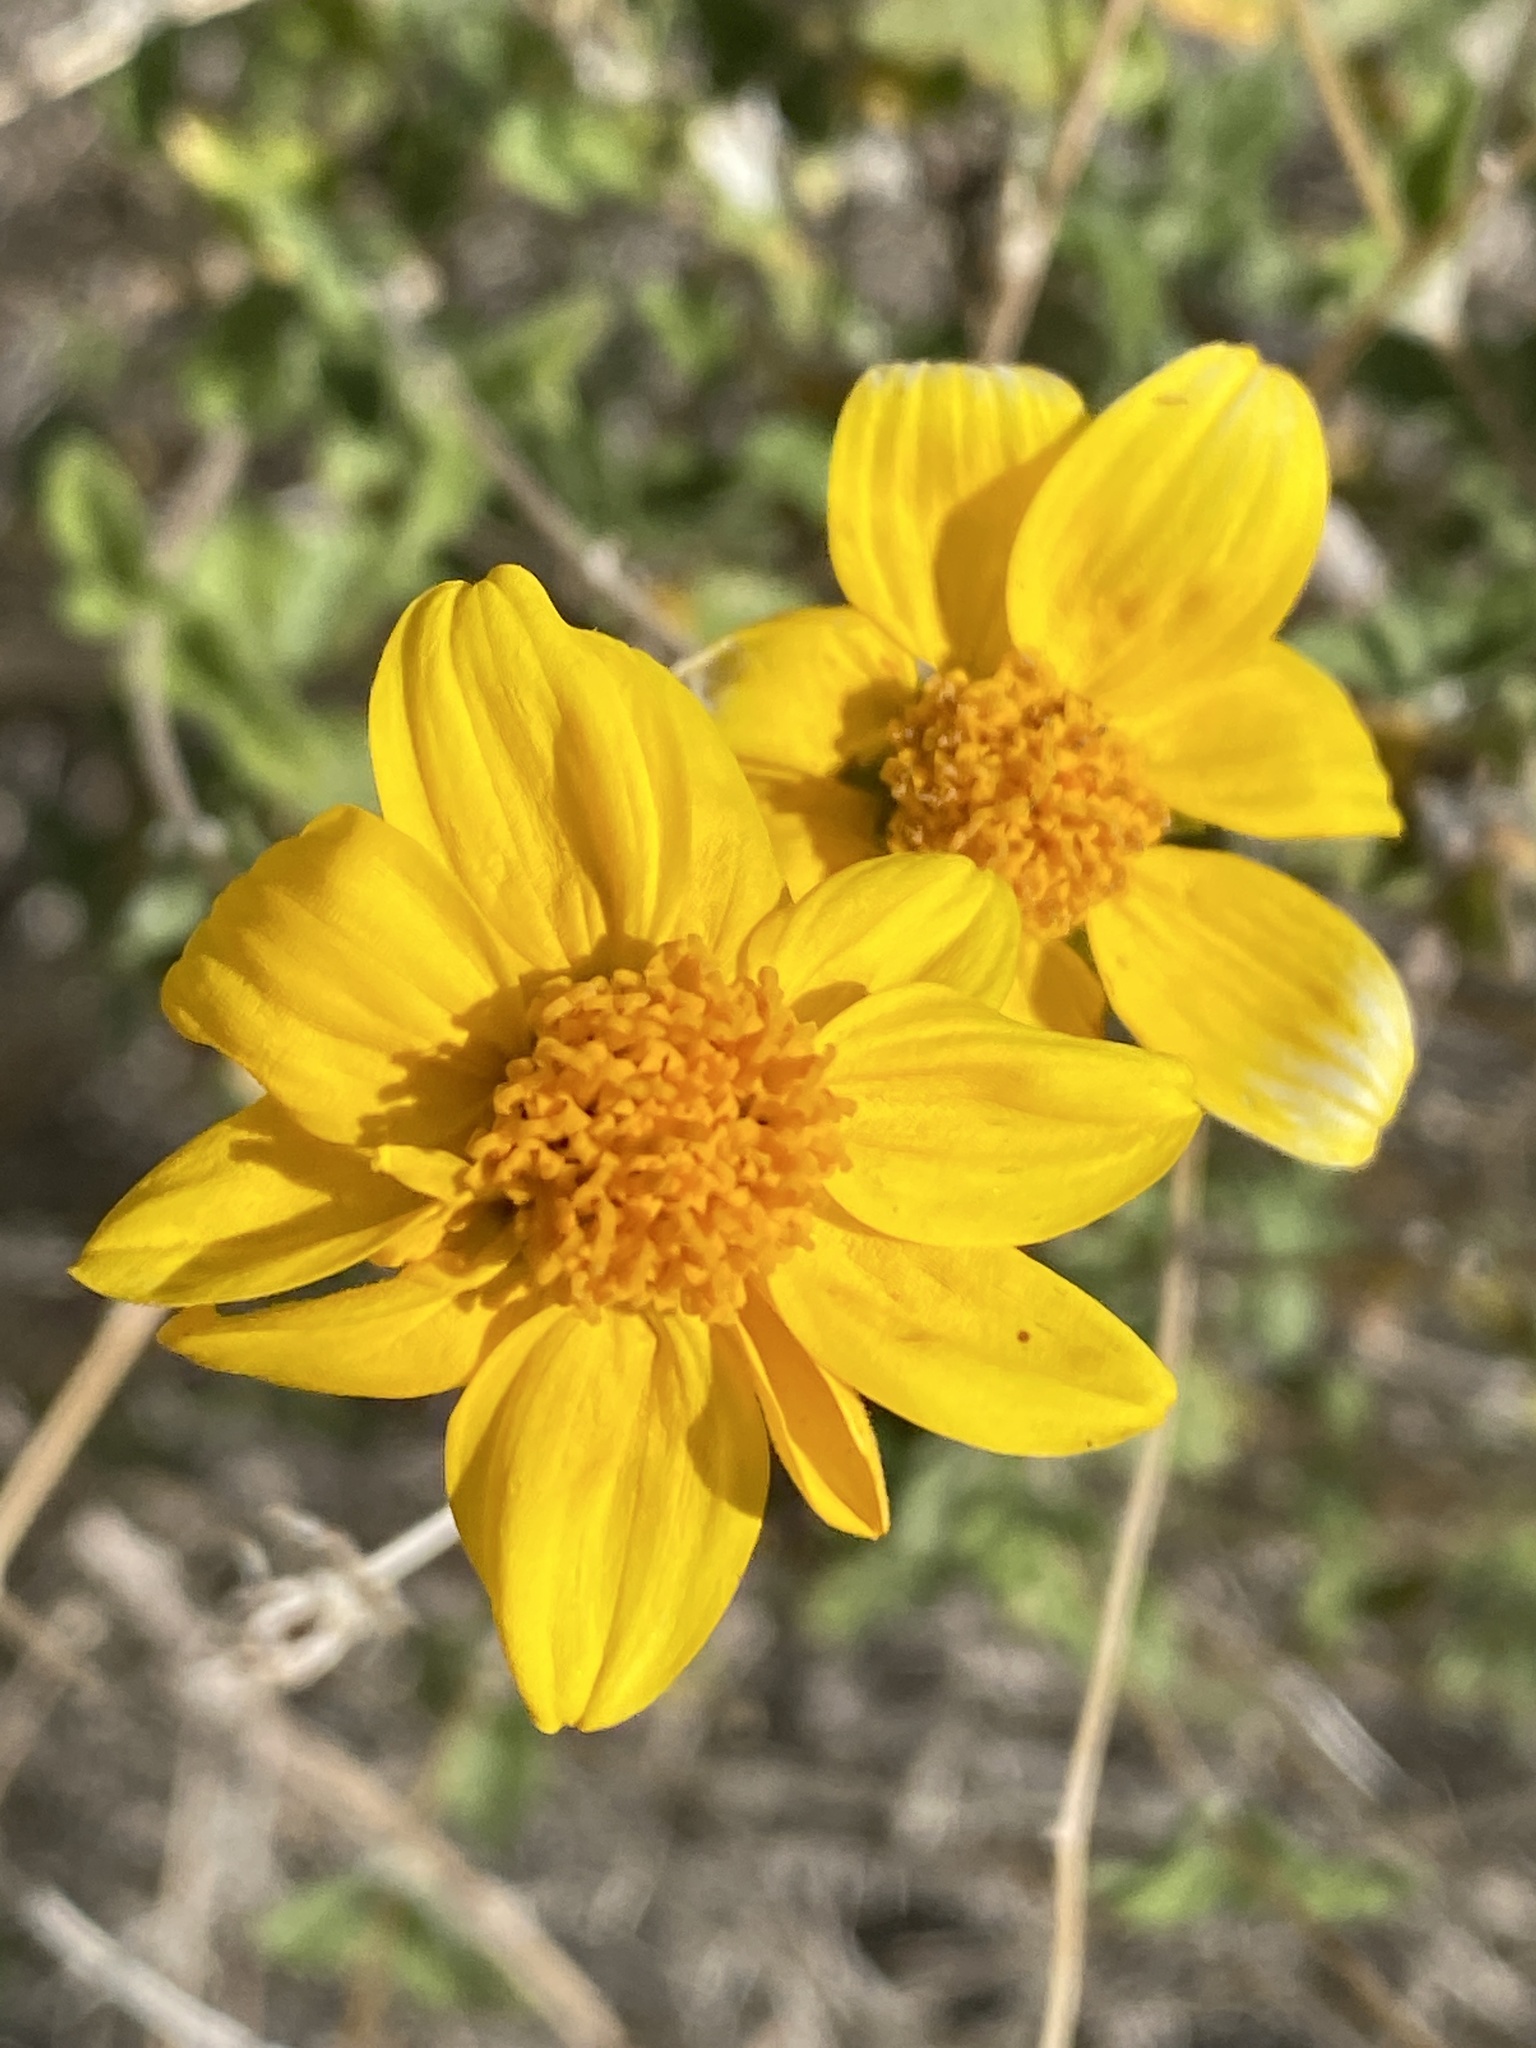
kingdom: Plantae
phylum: Tracheophyta
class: Magnoliopsida
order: Asterales
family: Asteraceae
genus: Bahiopsis
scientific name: Bahiopsis parishii
